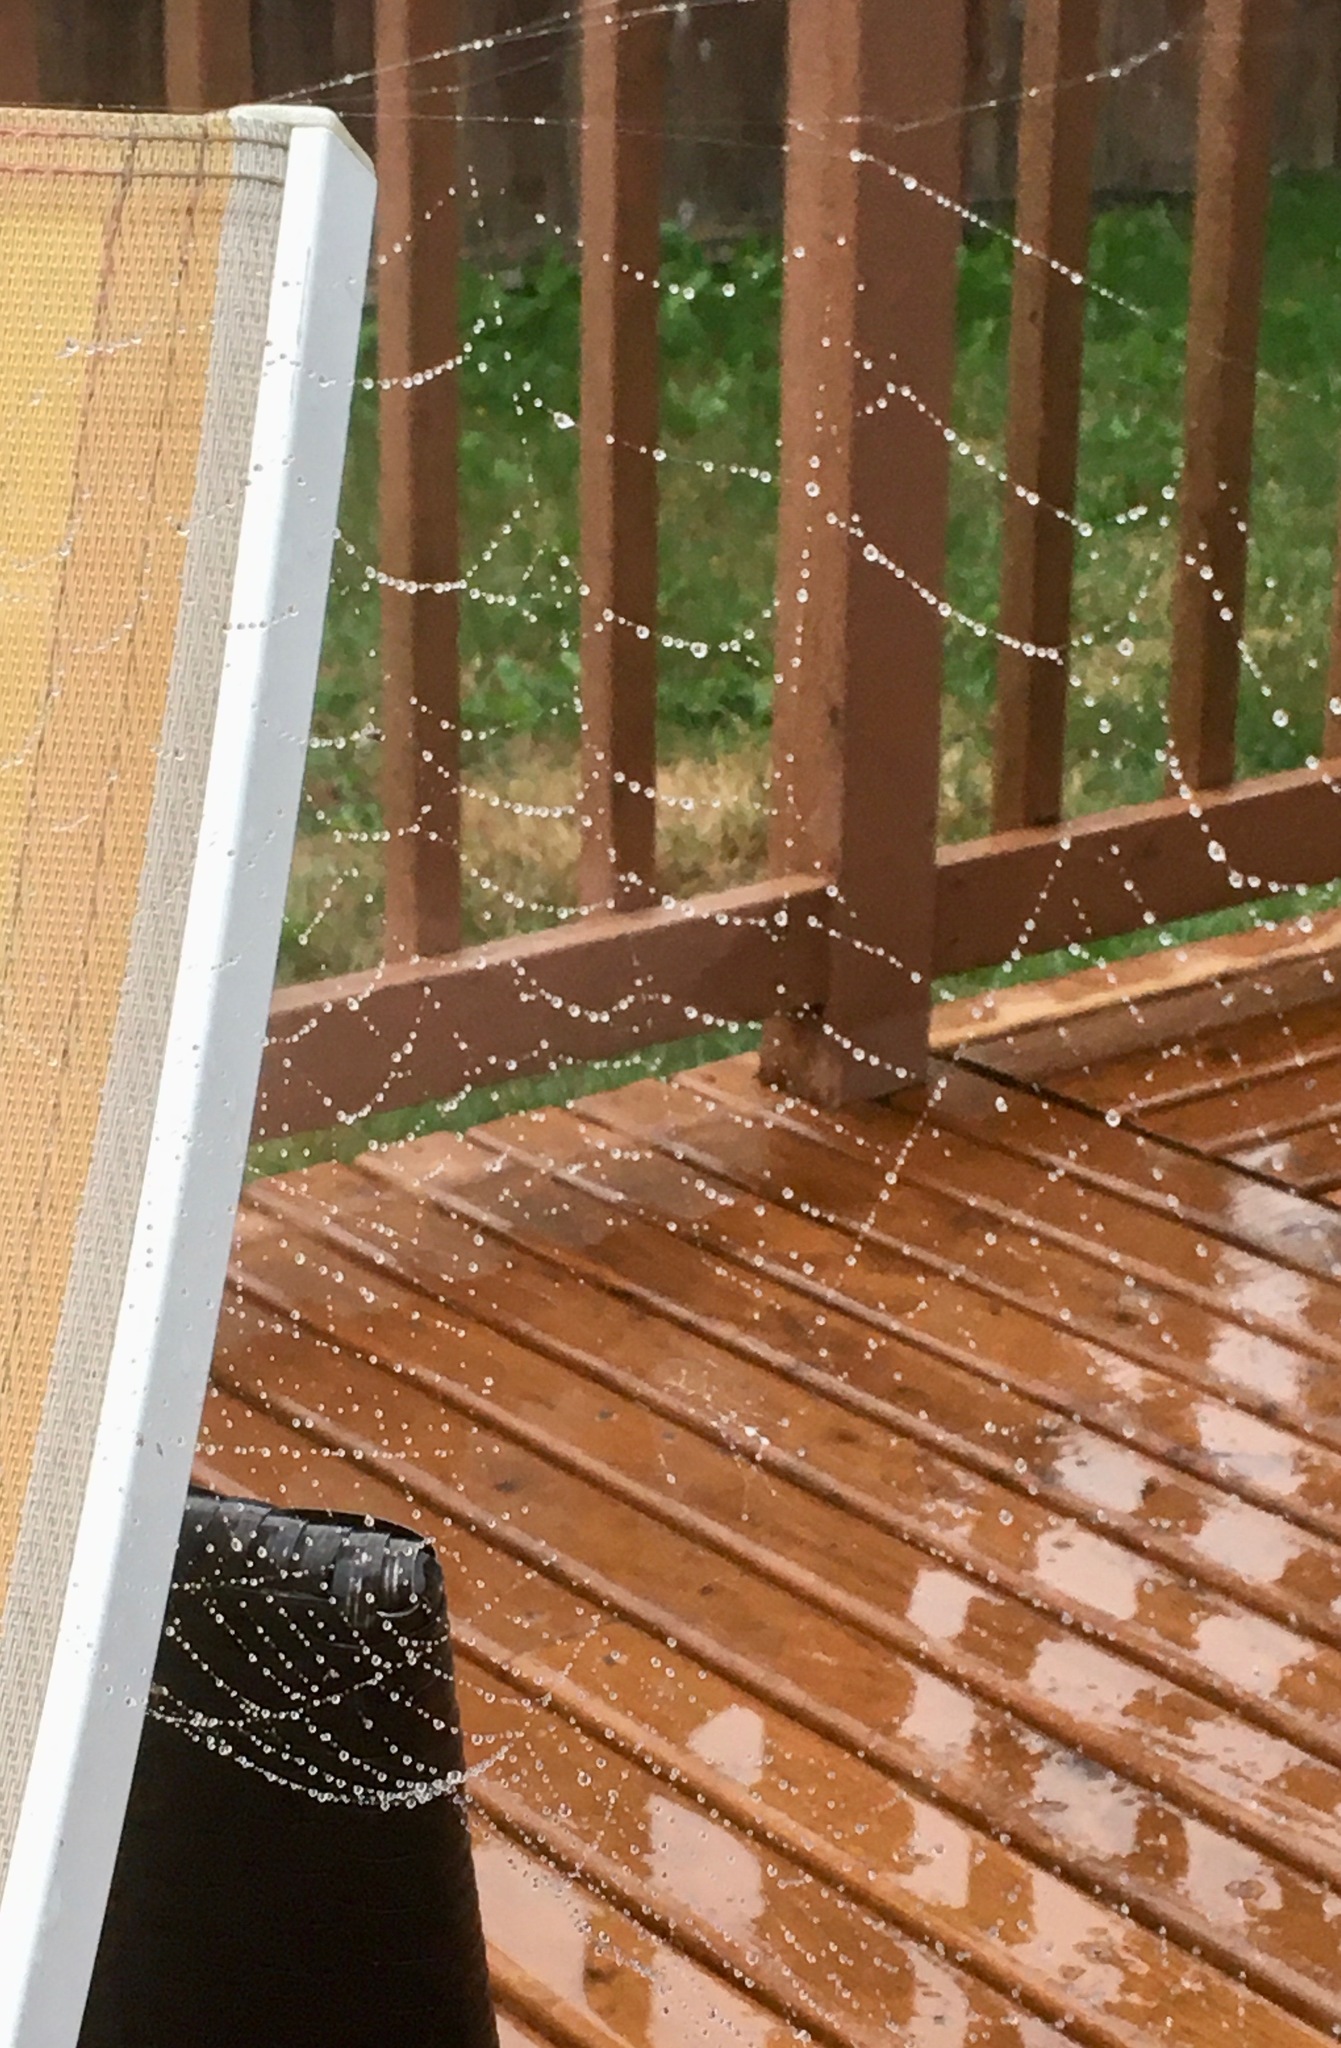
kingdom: Animalia
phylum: Arthropoda
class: Arachnida
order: Araneae
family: Araneidae
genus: Araneus
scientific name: Araneus diadematus
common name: Cross orbweaver
